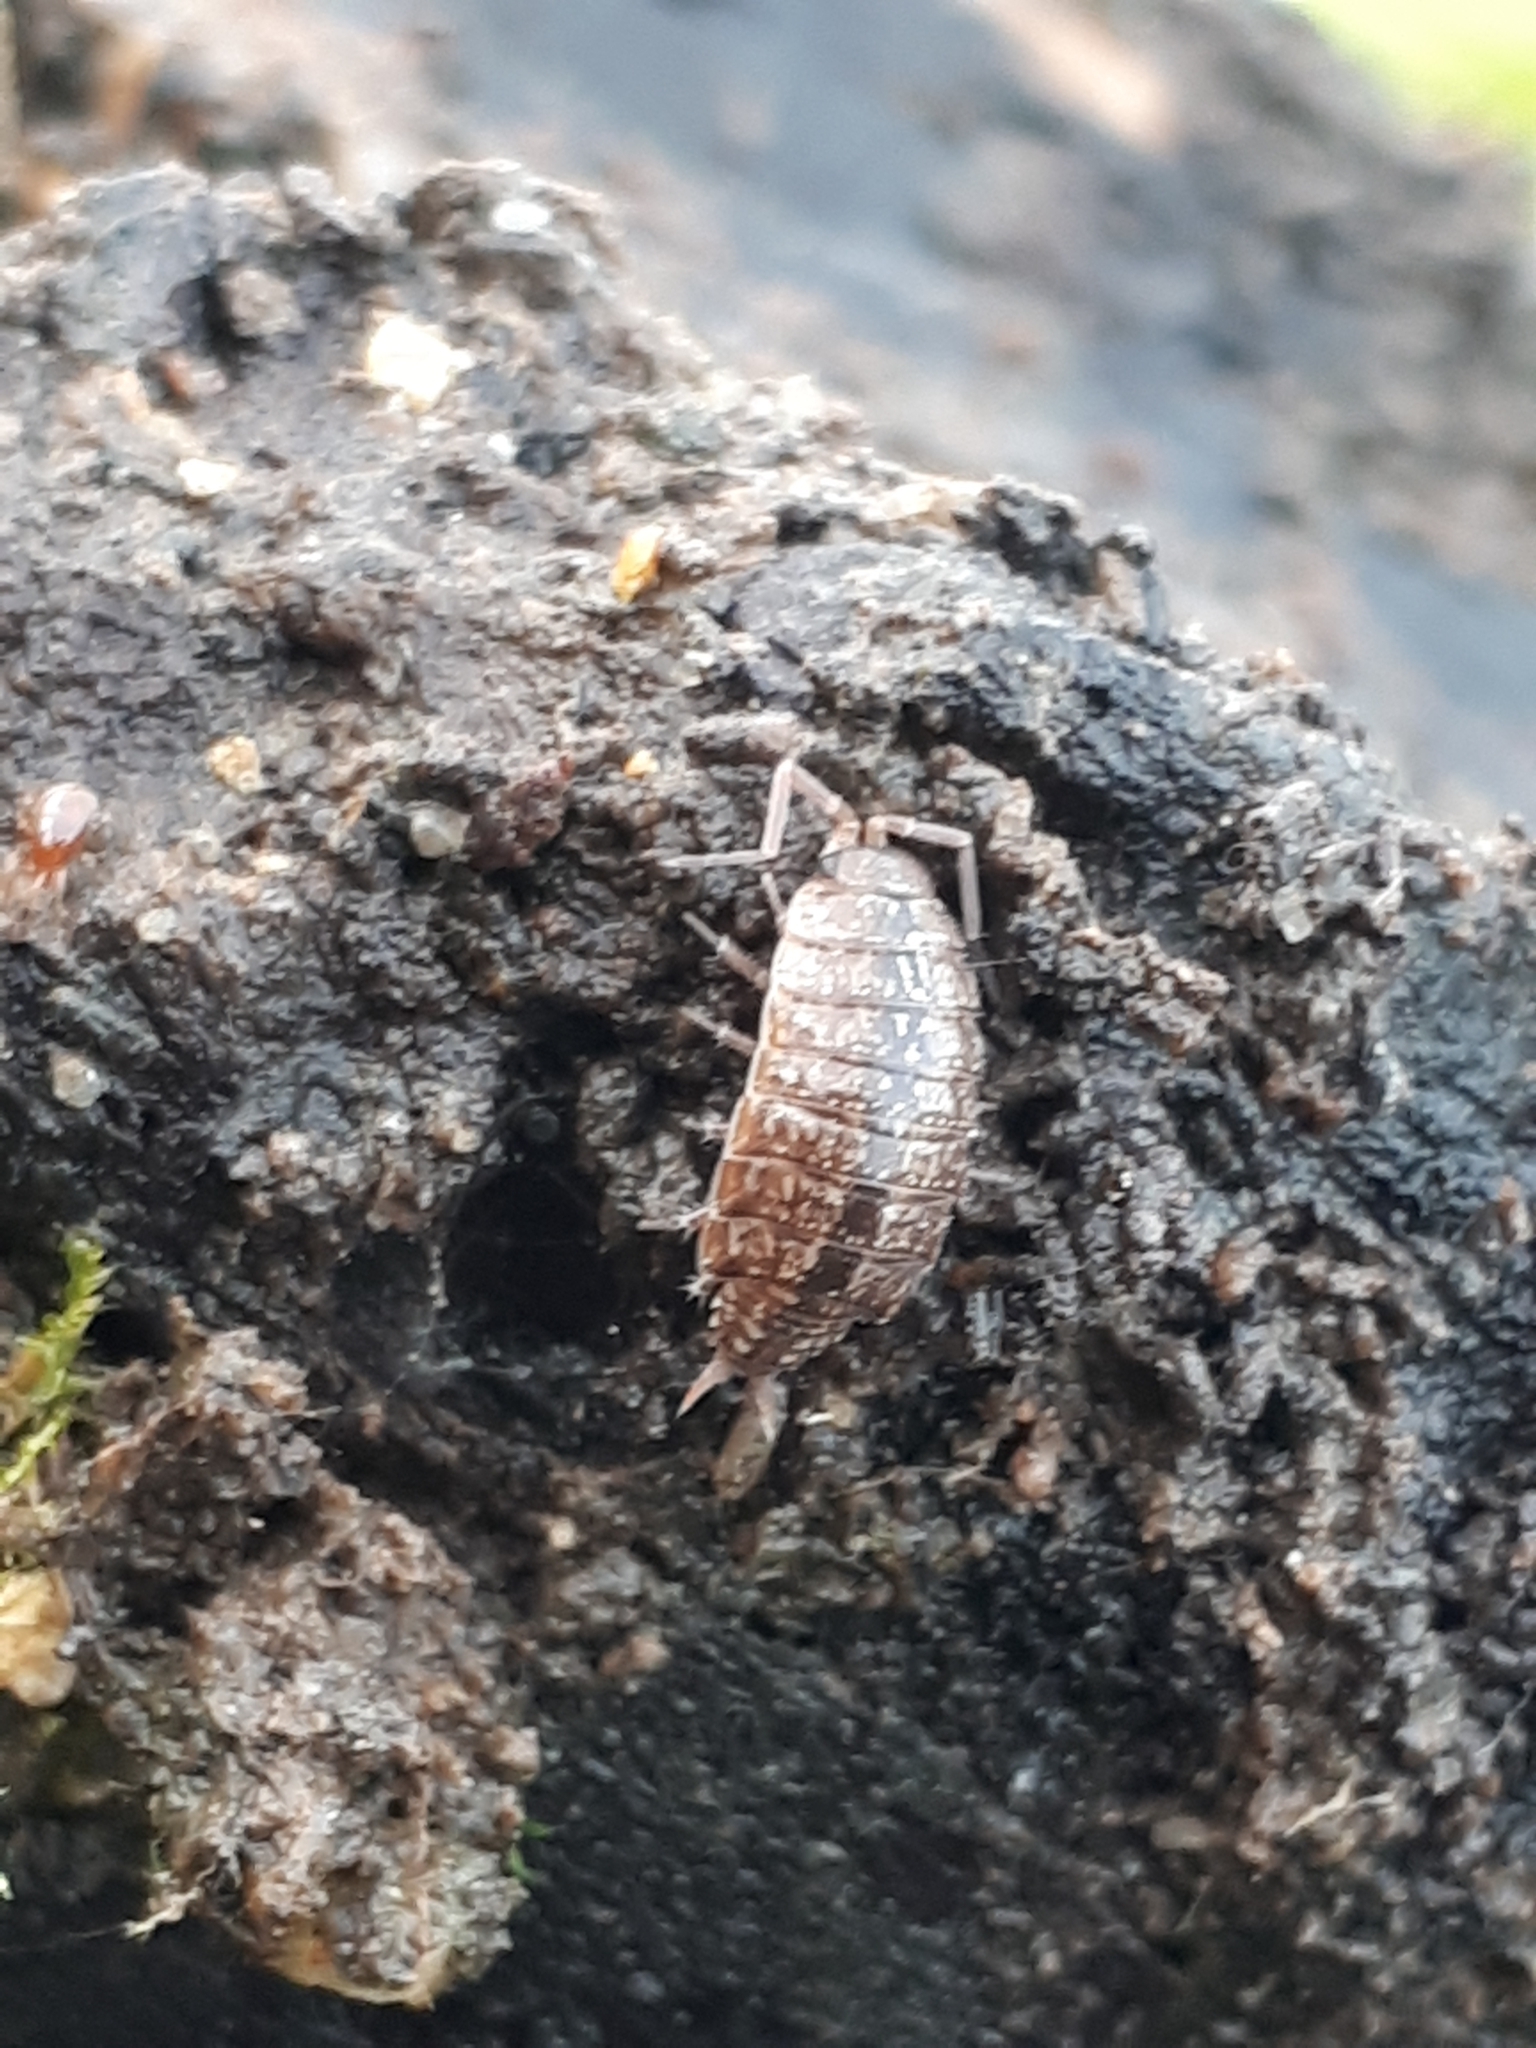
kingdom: Animalia
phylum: Arthropoda
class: Malacostraca
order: Isopoda
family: Philosciidae
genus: Philoscia
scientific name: Philoscia affinis
